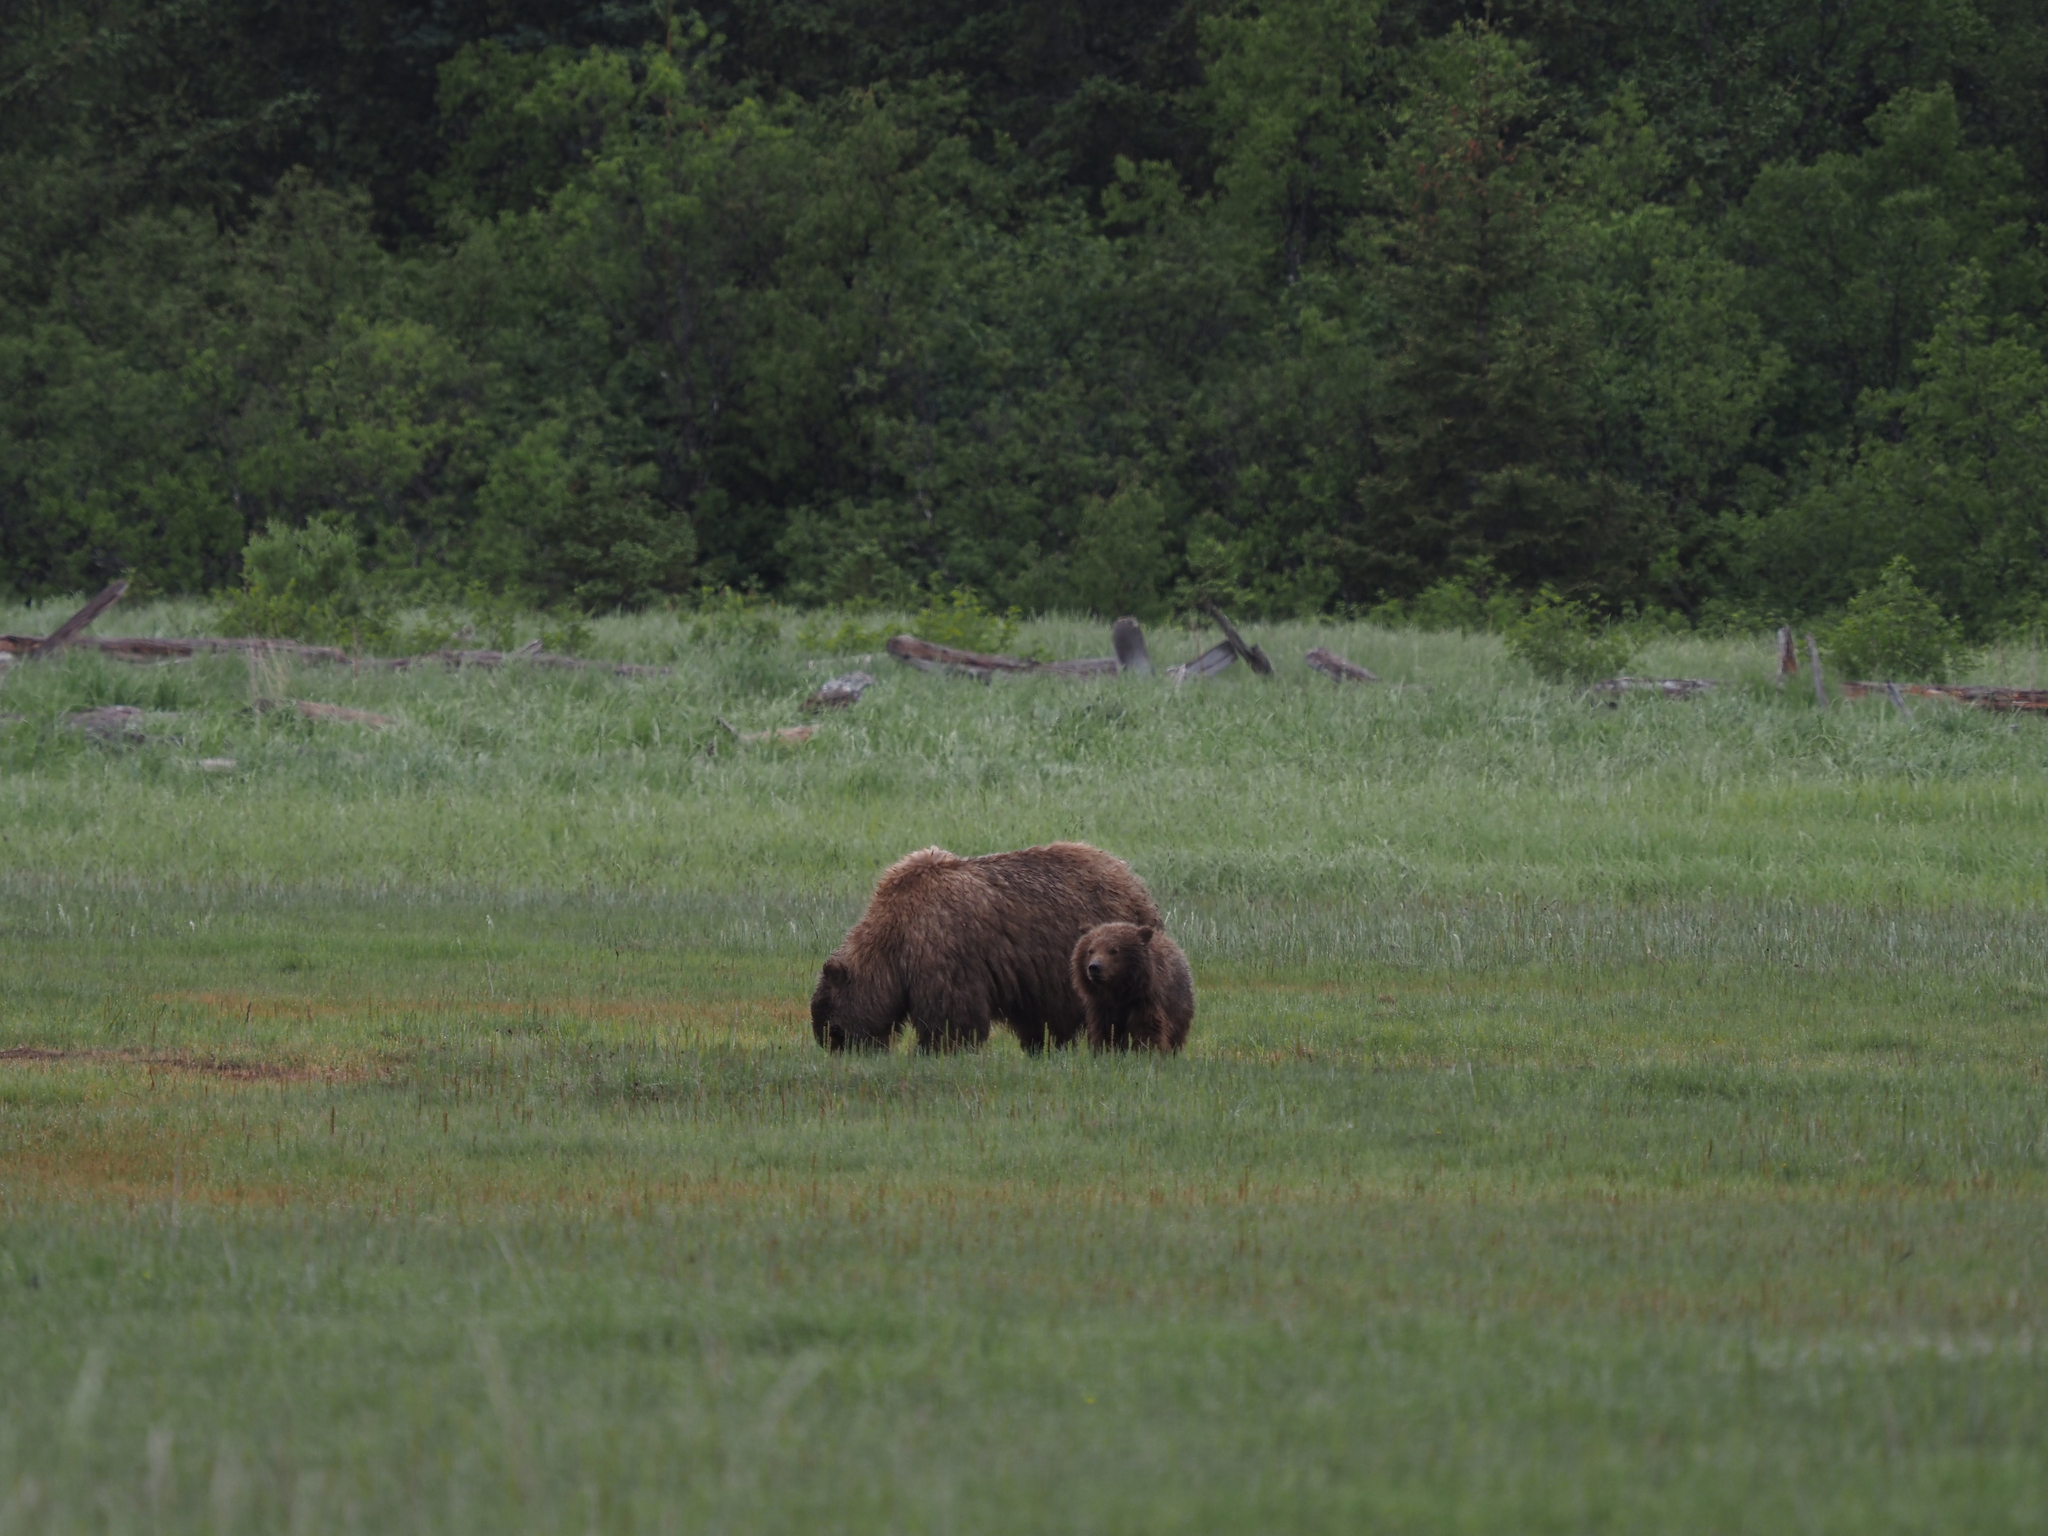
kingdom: Animalia
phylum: Chordata
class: Mammalia
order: Carnivora
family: Ursidae
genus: Ursus
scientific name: Ursus arctos
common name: Brown bear
